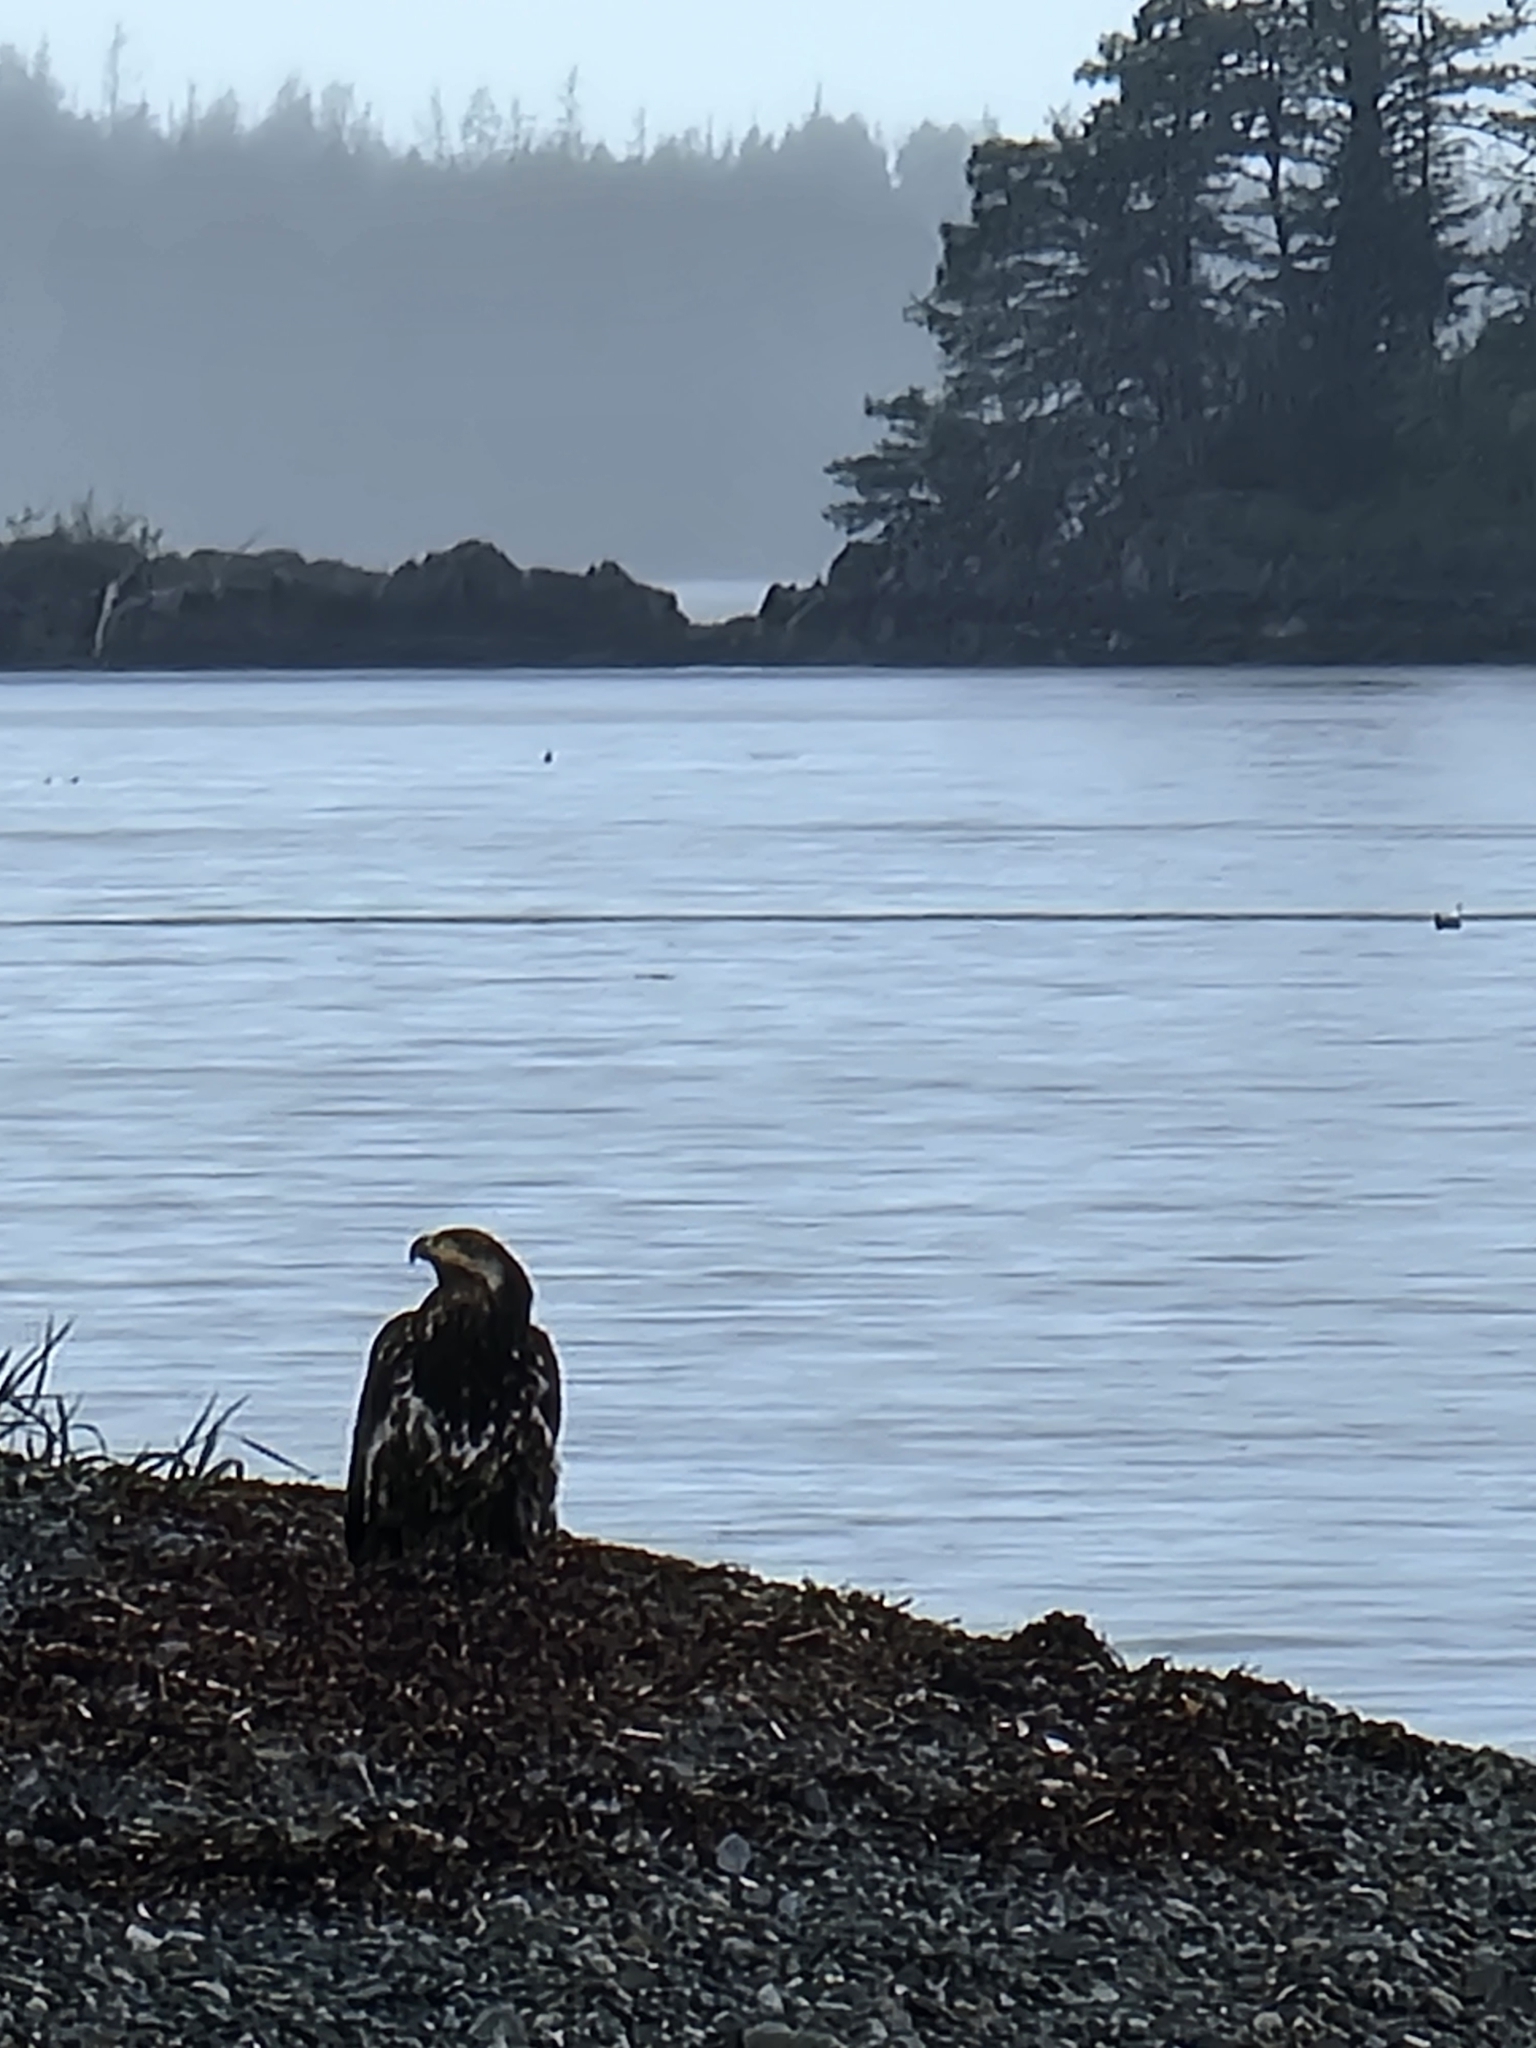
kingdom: Animalia
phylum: Chordata
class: Aves
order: Accipitriformes
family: Accipitridae
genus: Haliaeetus
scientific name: Haliaeetus leucocephalus
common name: Bald eagle
